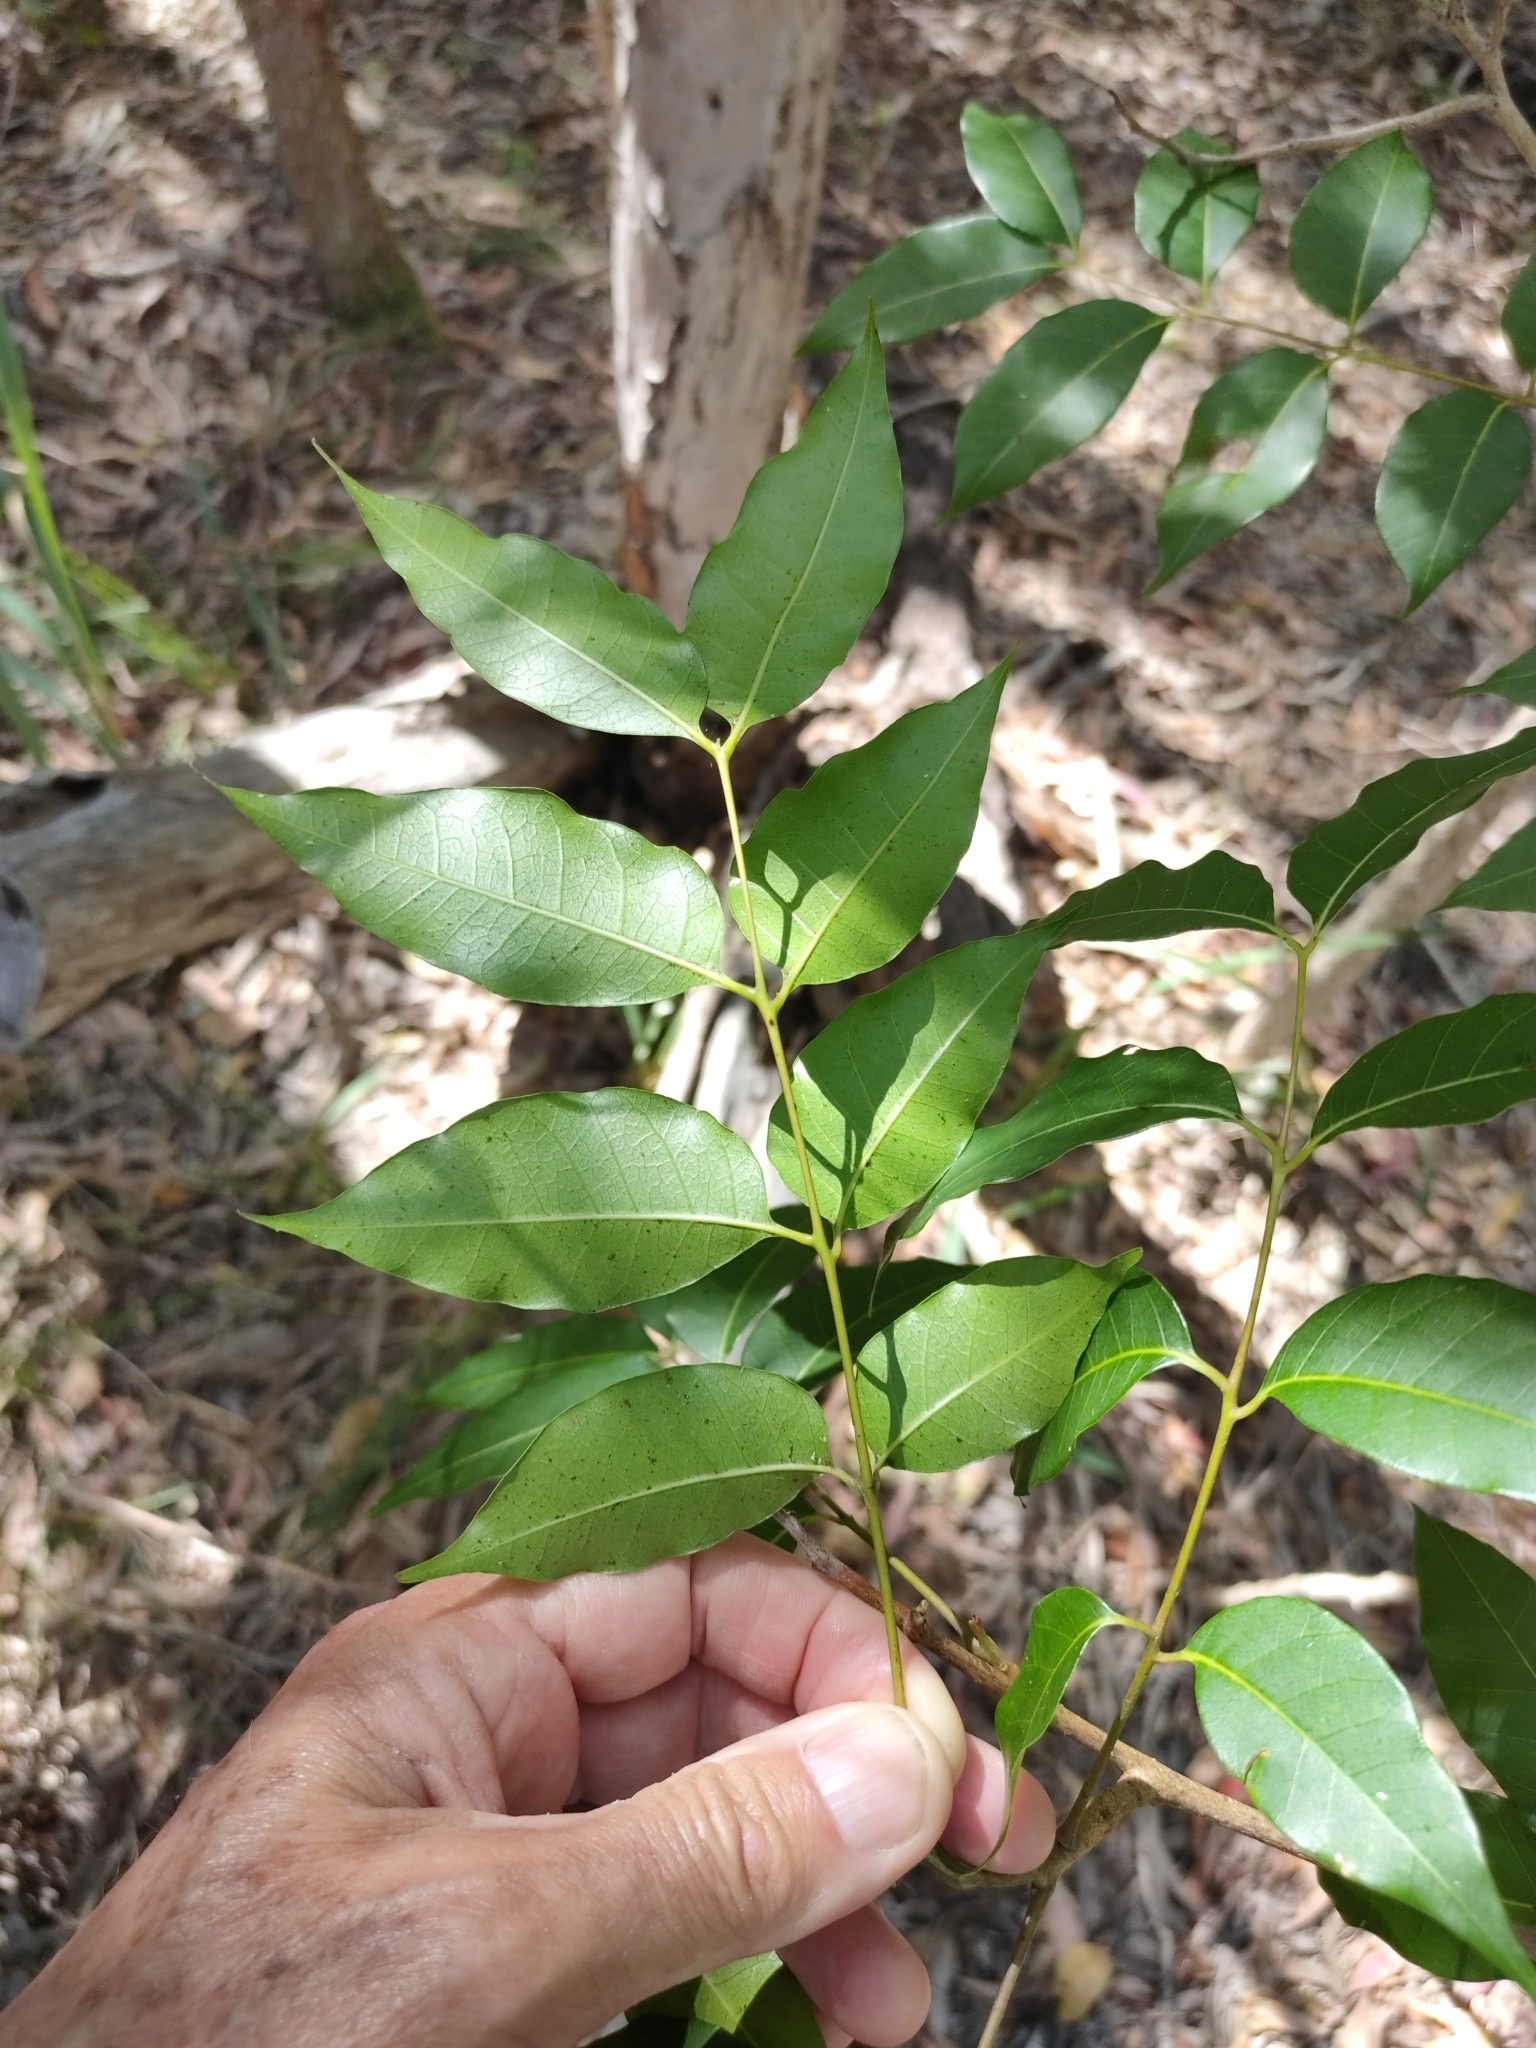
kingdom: Plantae
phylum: Tracheophyta
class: Magnoliopsida
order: Sapindales
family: Anacardiaceae
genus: Euroschinus
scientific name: Euroschinus falcatus
